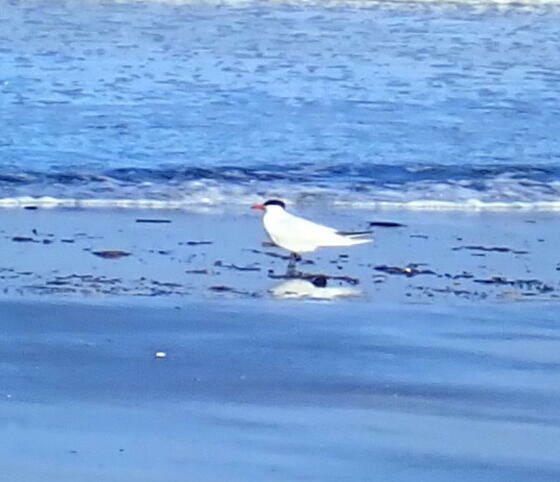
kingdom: Animalia
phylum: Chordata
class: Aves
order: Charadriiformes
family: Laridae
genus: Hydroprogne
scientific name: Hydroprogne caspia
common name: Caspian tern
